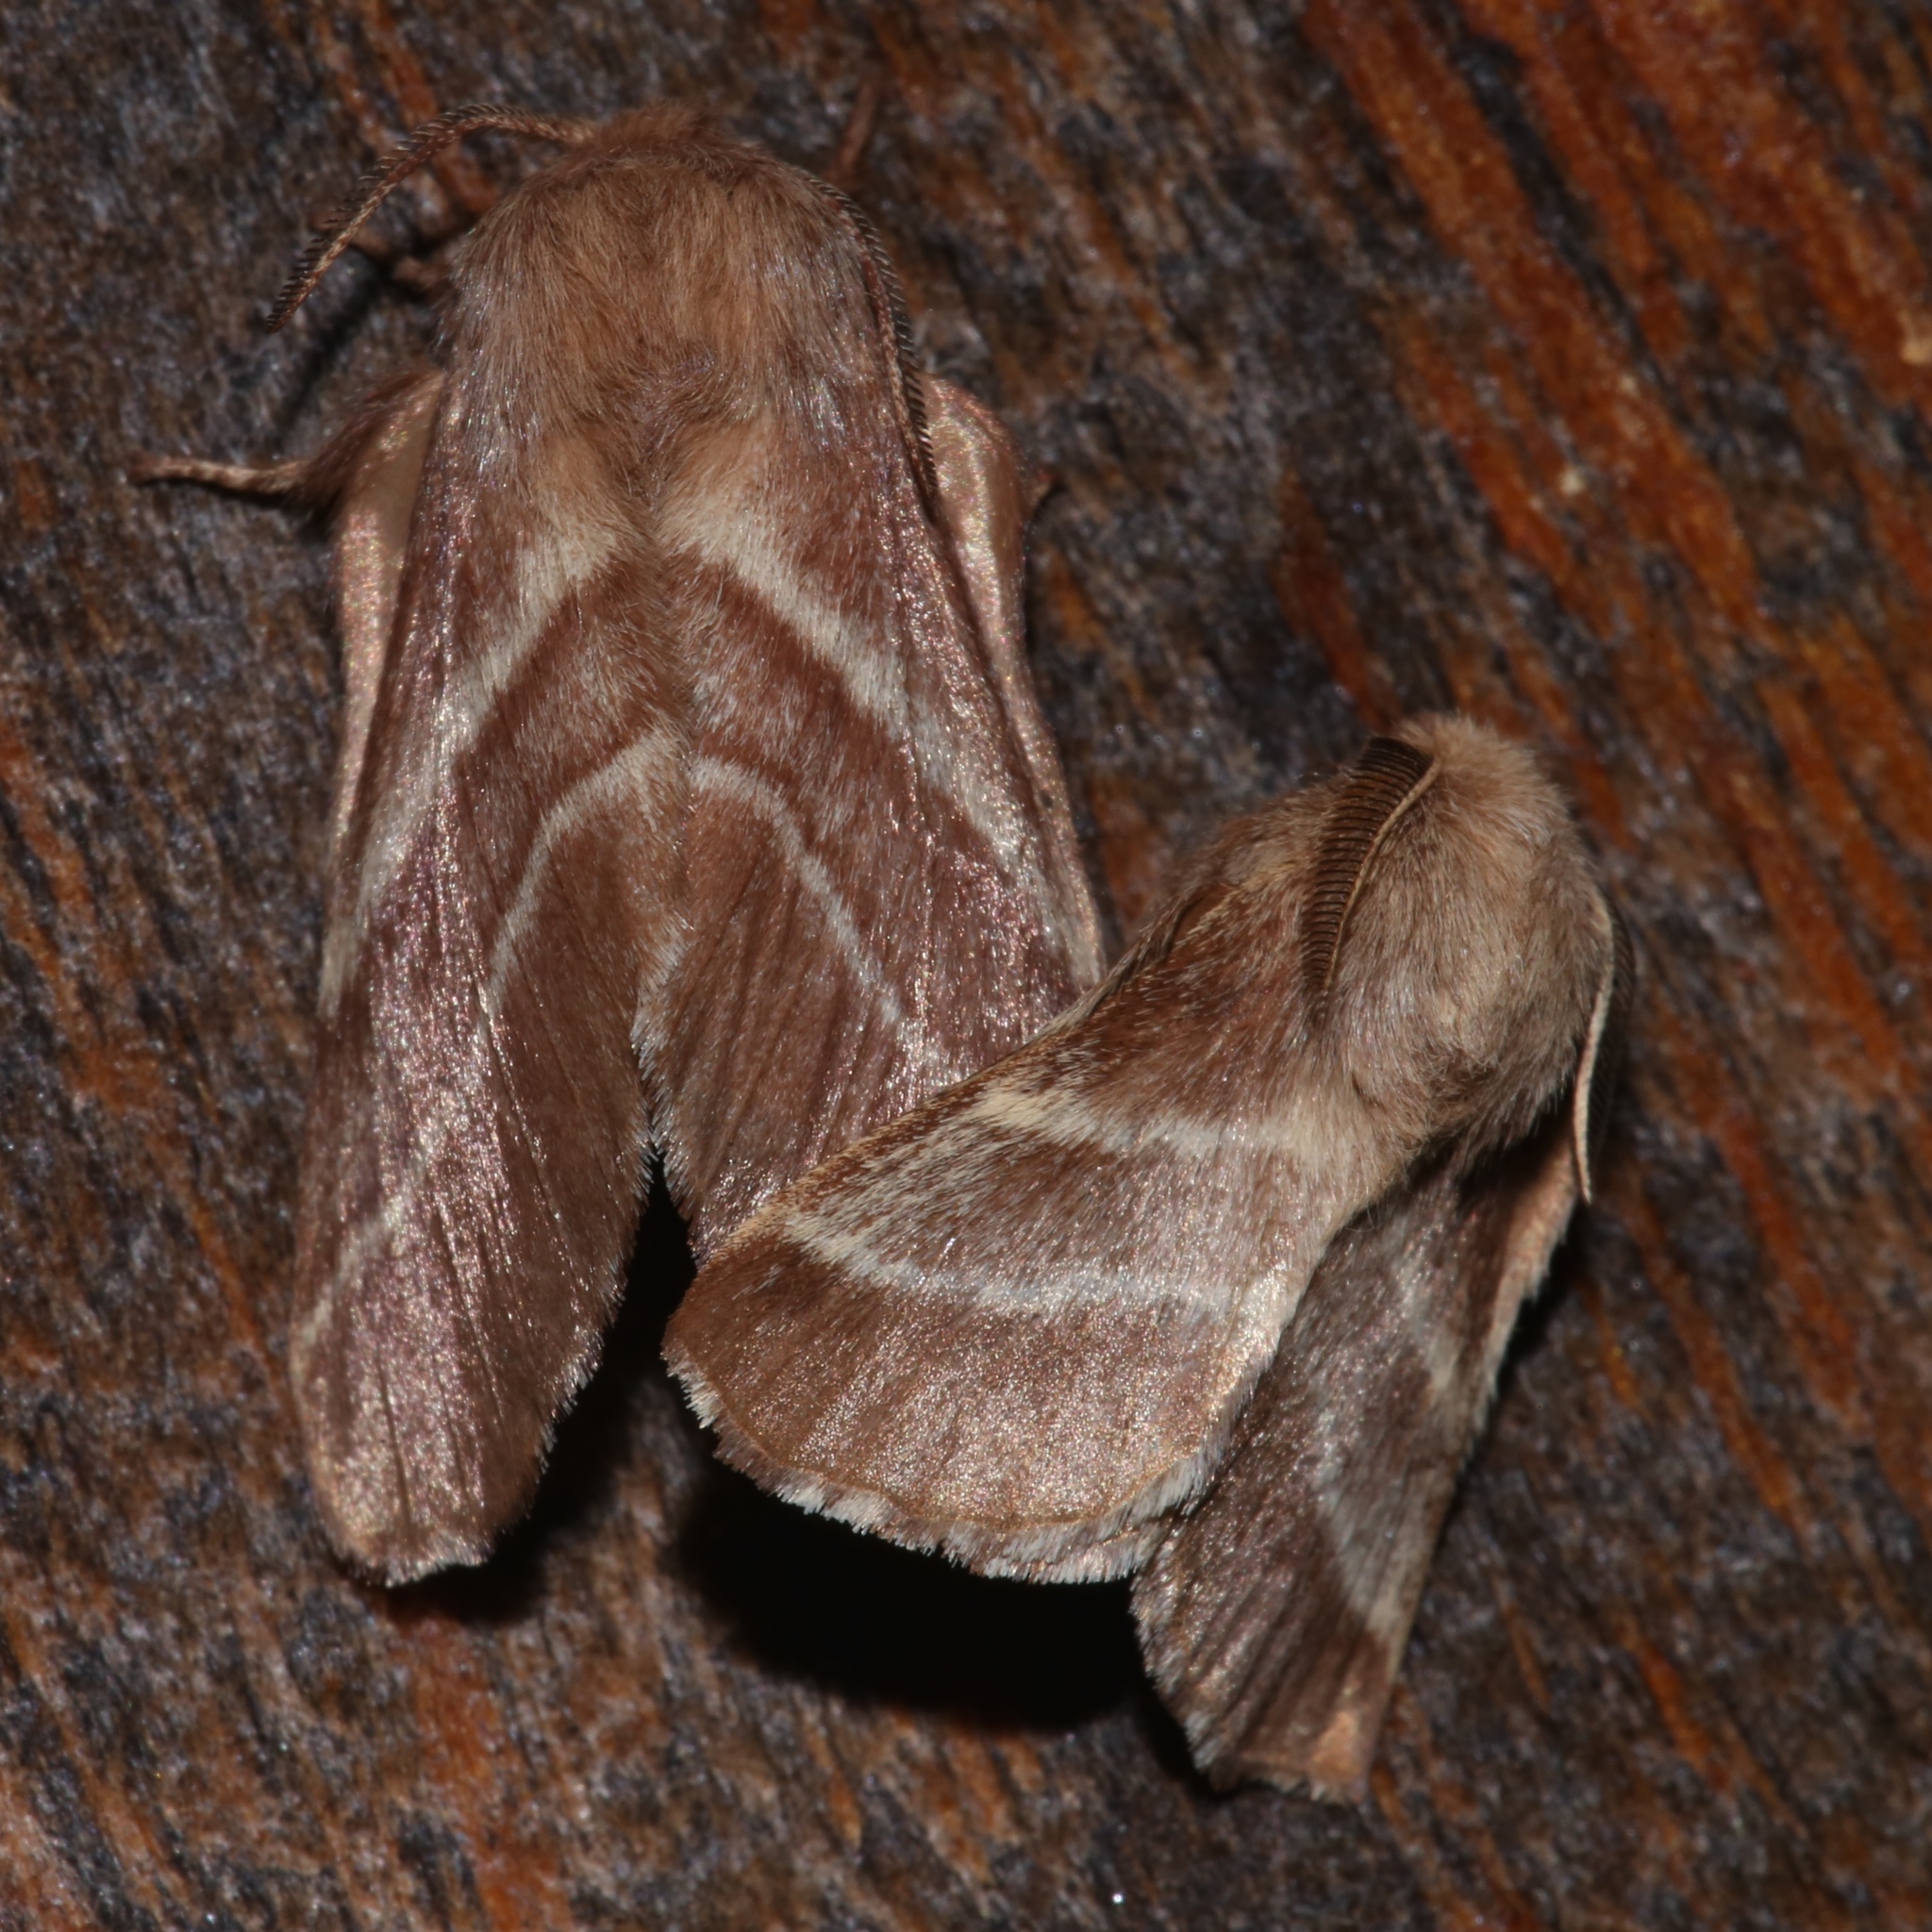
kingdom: Animalia
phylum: Arthropoda
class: Insecta
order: Lepidoptera
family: Lasiocampidae
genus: Malacosoma
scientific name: Malacosoma americana
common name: Eastern tent caterpillar moth
